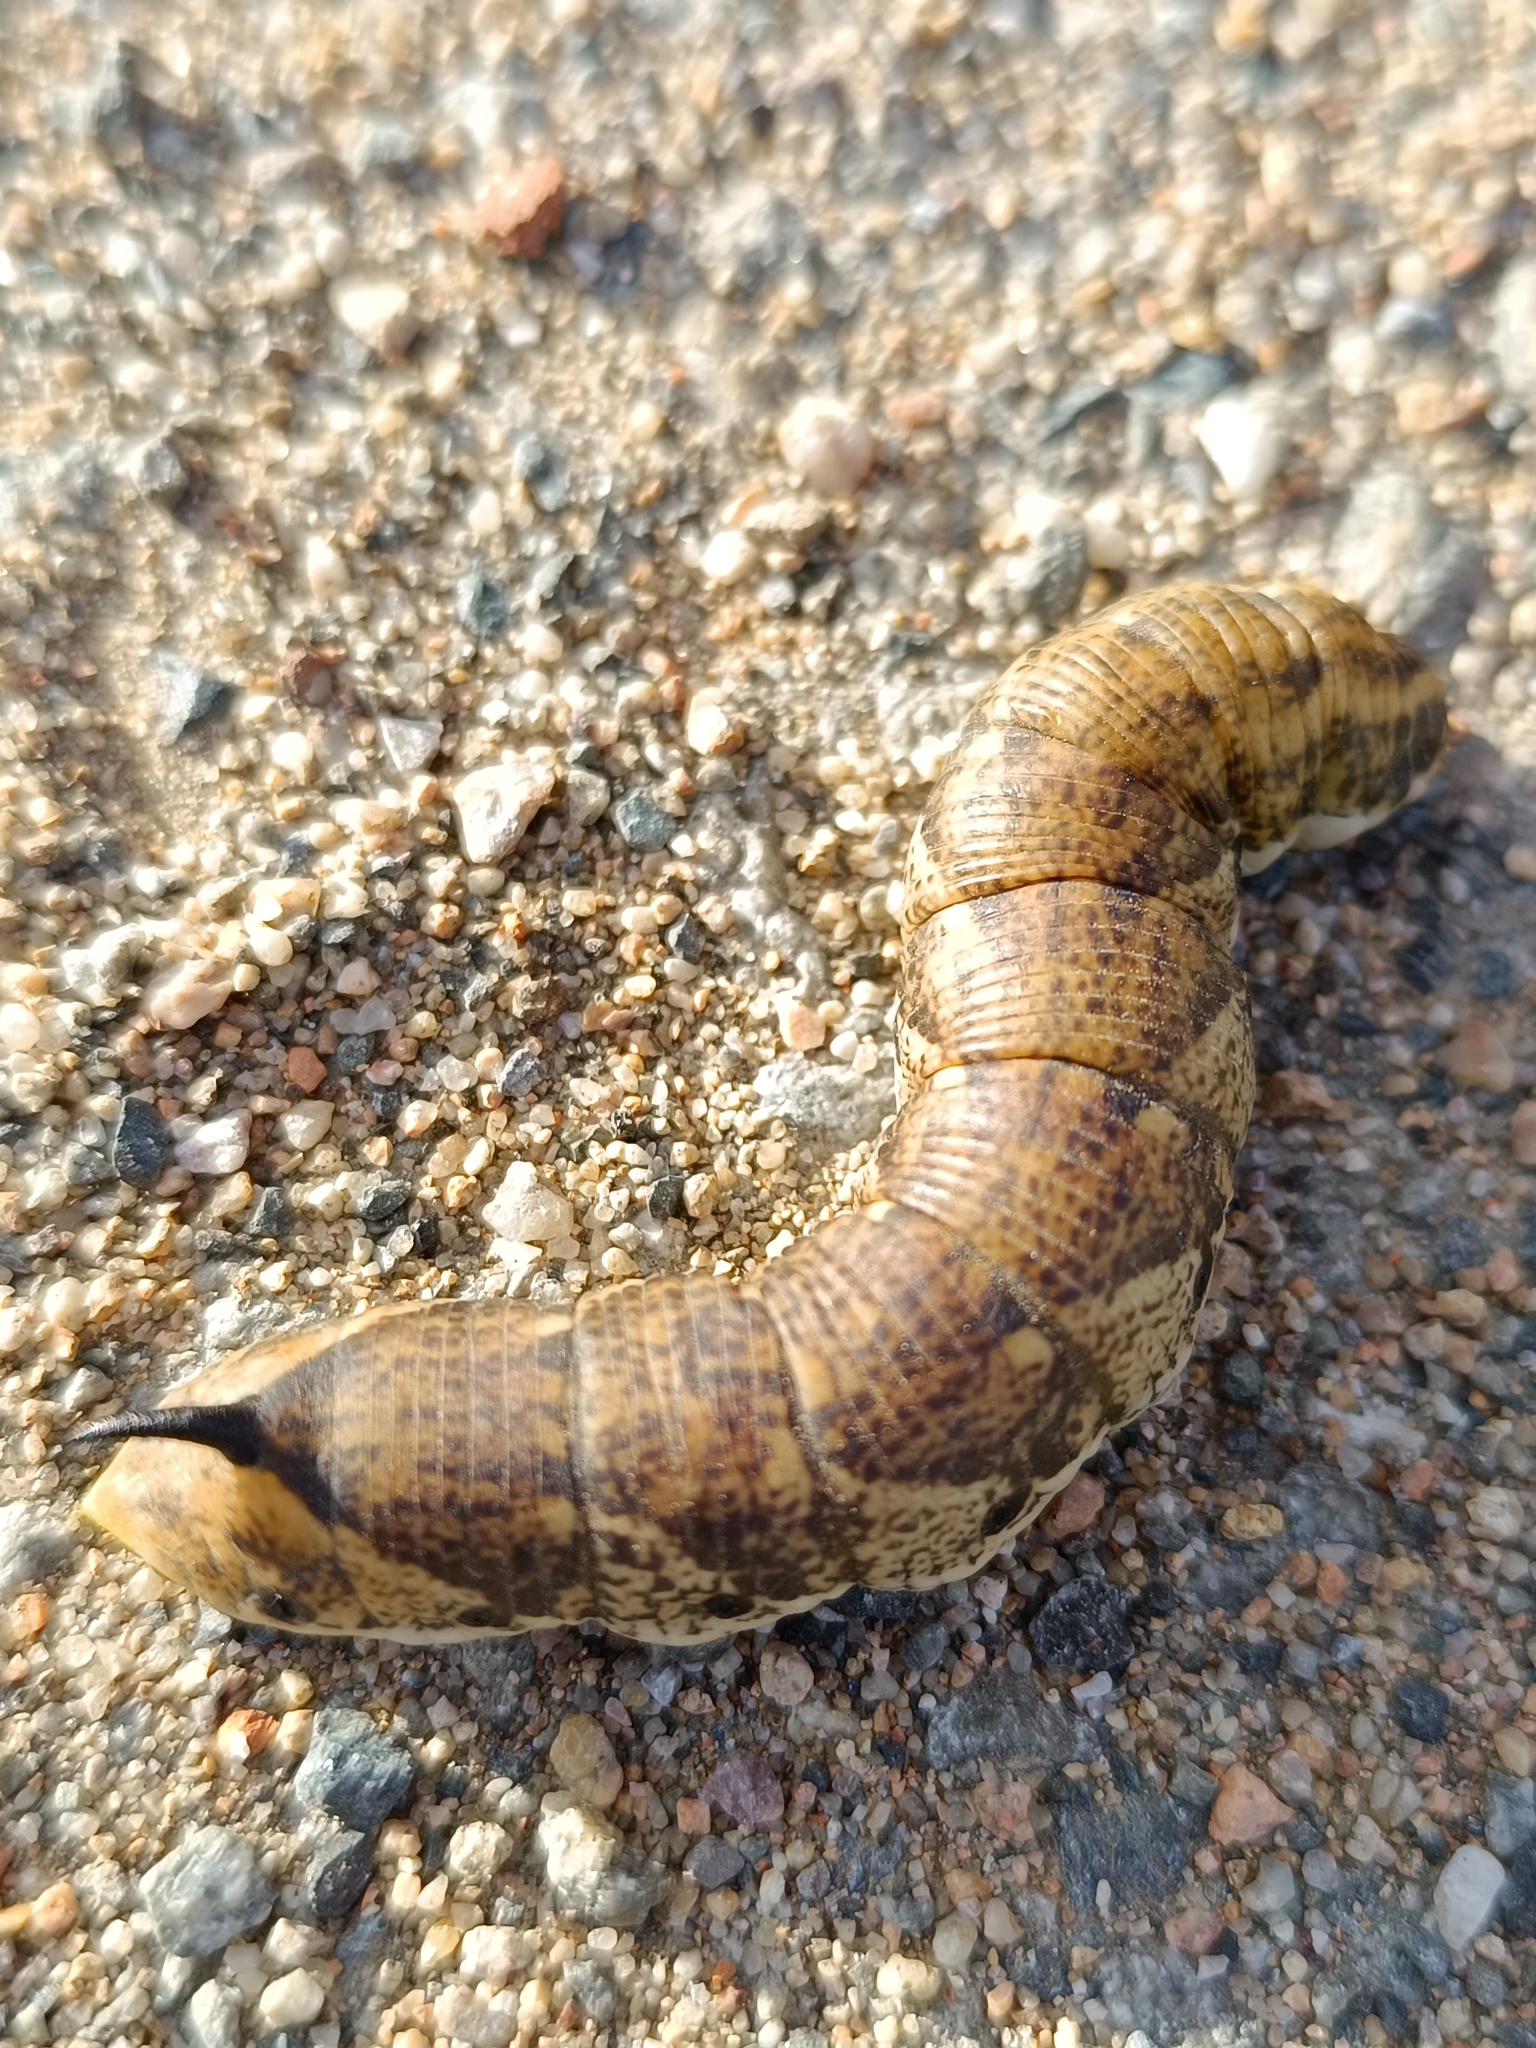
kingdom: Animalia
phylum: Arthropoda
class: Insecta
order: Lepidoptera
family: Sphingidae
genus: Agrius
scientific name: Agrius convolvuli
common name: Convolvulus hawkmoth
